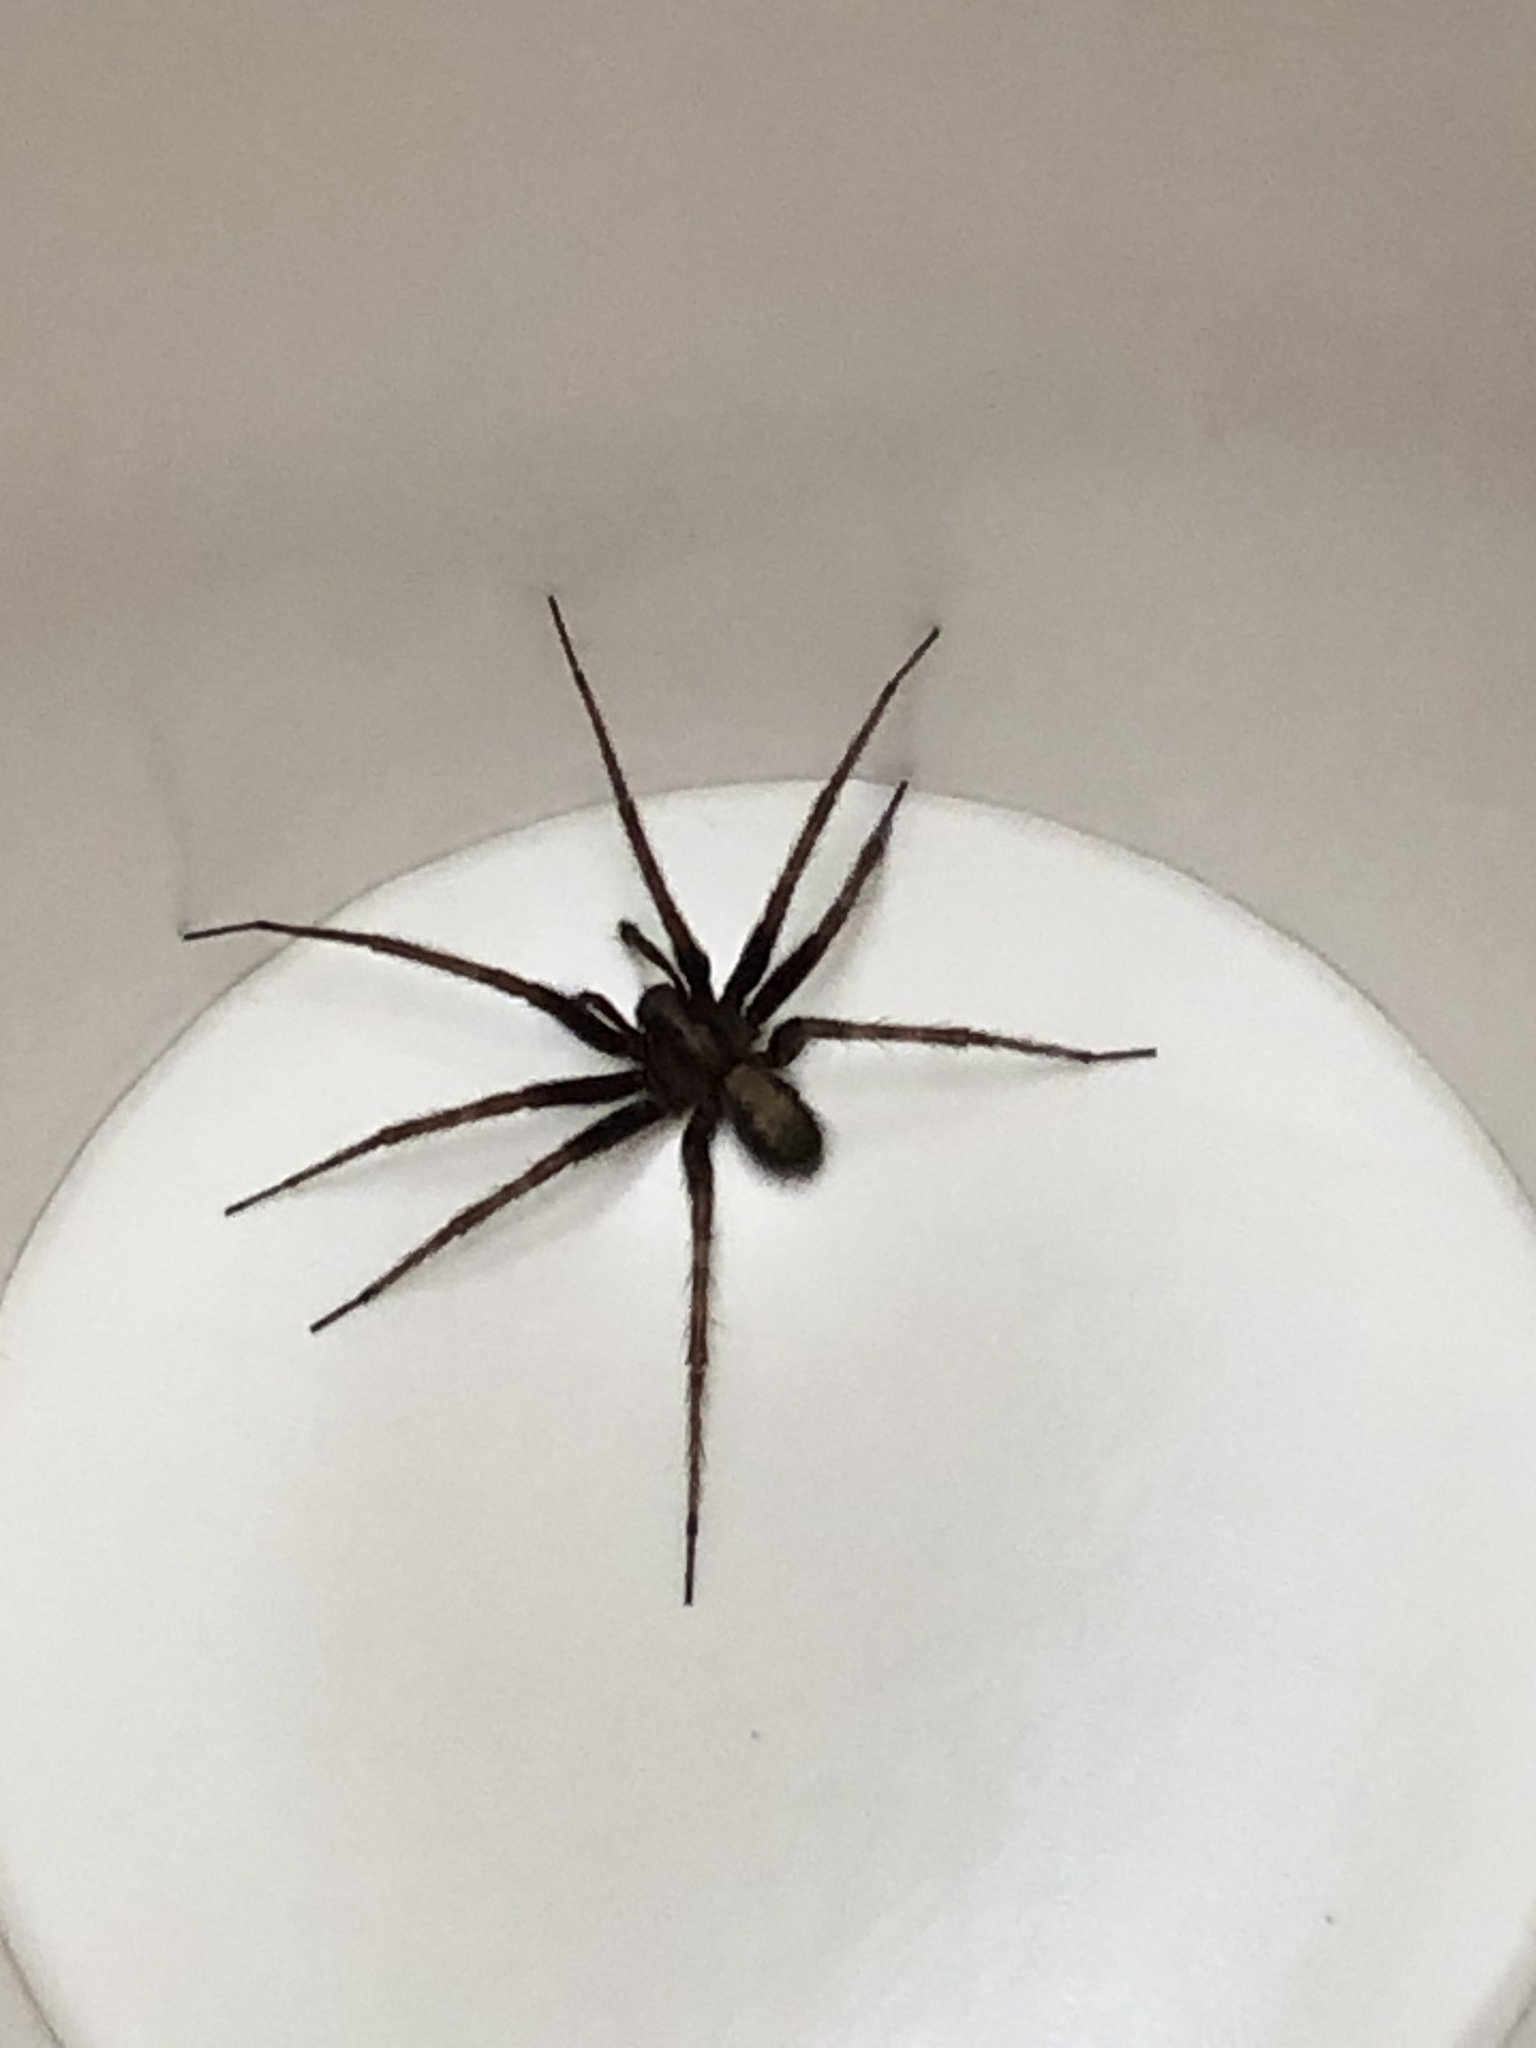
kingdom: Animalia
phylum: Arthropoda
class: Arachnida
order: Araneae
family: Agelenidae
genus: Tegenaria
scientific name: Tegenaria domestica
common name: Barn funnel weaver
